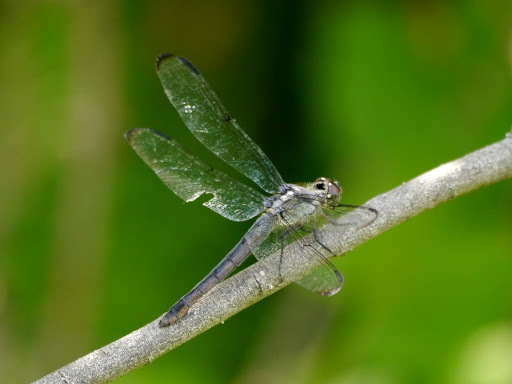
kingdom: Animalia
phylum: Arthropoda
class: Insecta
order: Odonata
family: Libellulidae
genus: Libellula
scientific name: Libellula incesta
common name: Slaty skimmer
